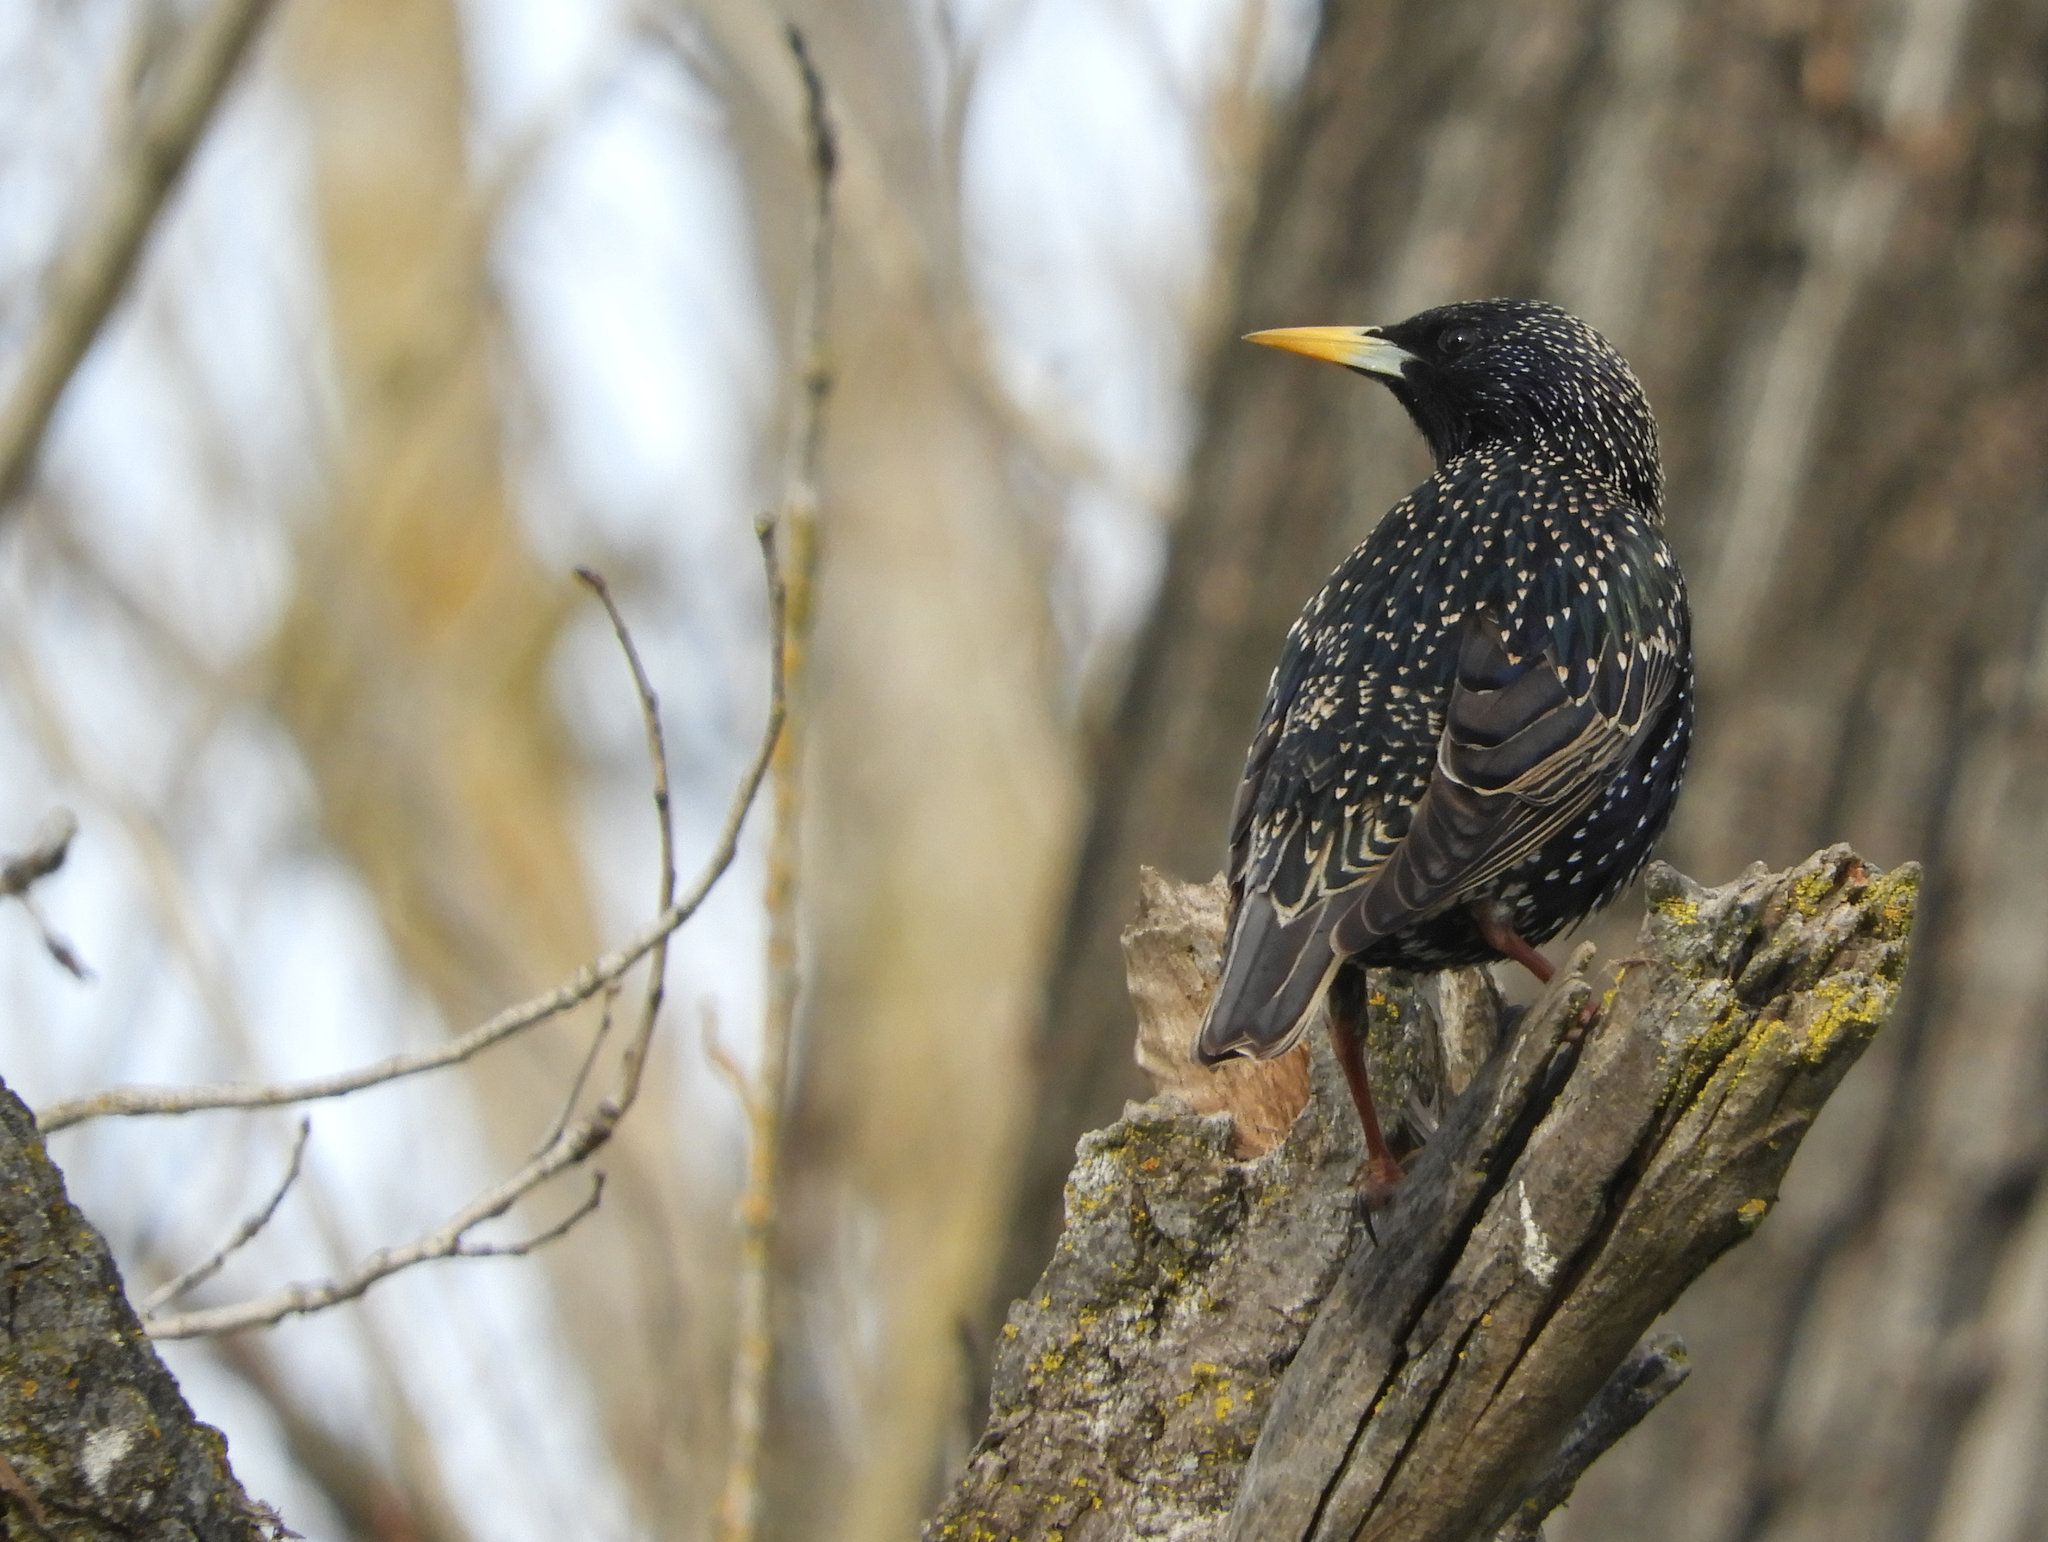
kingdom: Animalia
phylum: Chordata
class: Aves
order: Passeriformes
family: Sturnidae
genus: Sturnus
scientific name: Sturnus vulgaris
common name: Common starling
